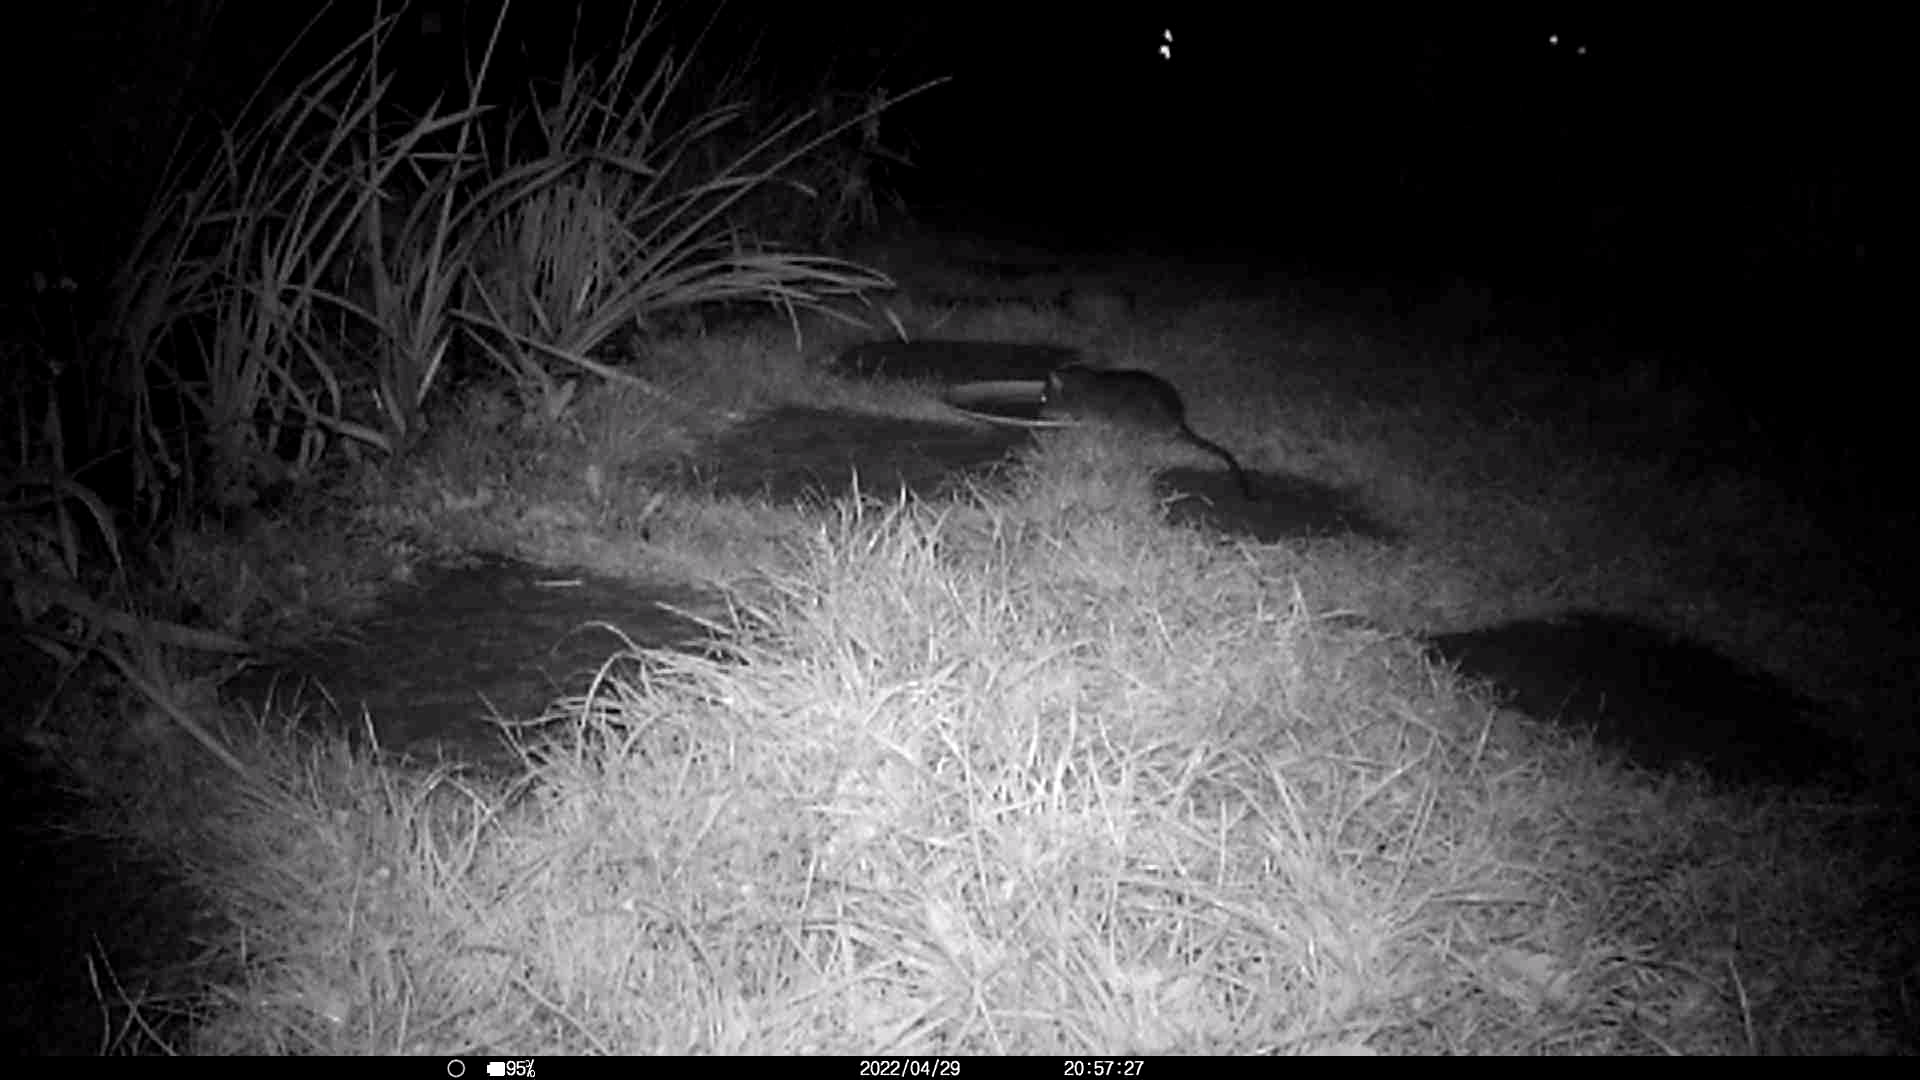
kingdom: Animalia
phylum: Chordata
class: Mammalia
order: Rodentia
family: Muridae
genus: Rattus
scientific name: Rattus norvegicus
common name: Brown rat
